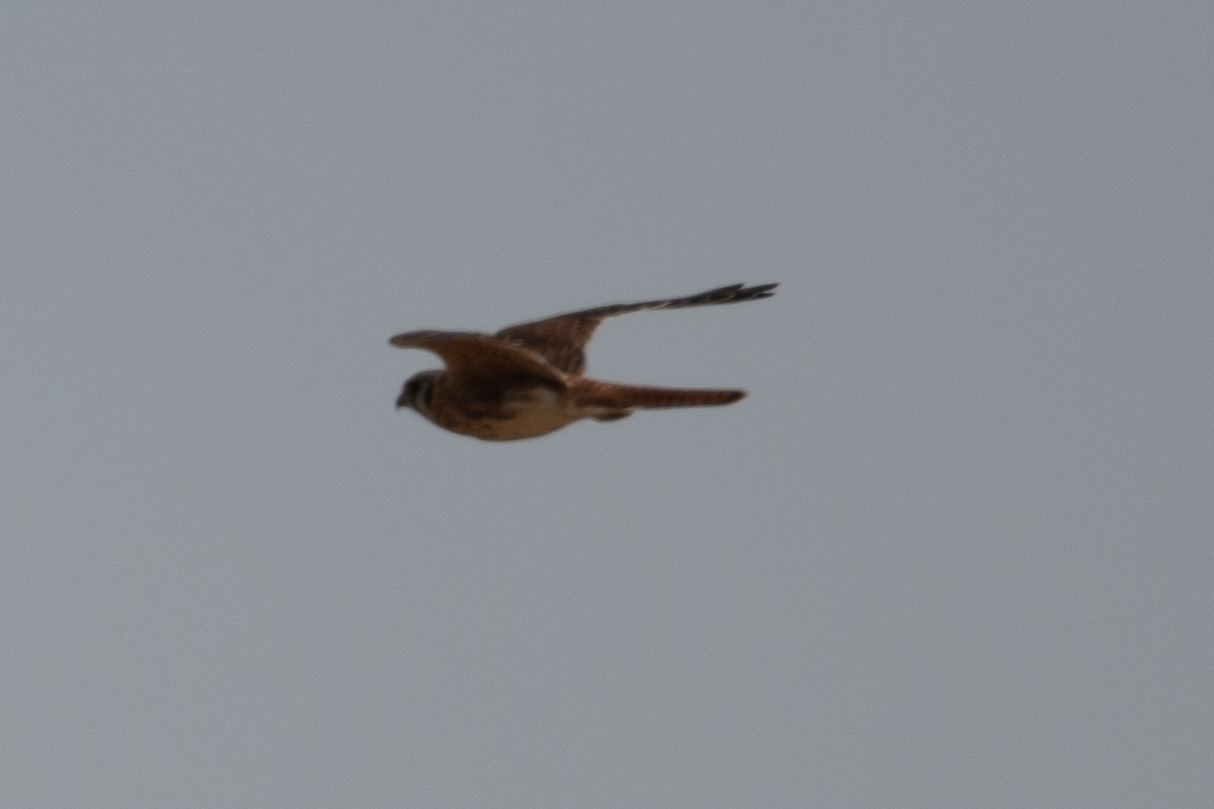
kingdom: Animalia
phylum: Chordata
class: Aves
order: Falconiformes
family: Falconidae
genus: Falco
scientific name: Falco sparverius
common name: American kestrel
